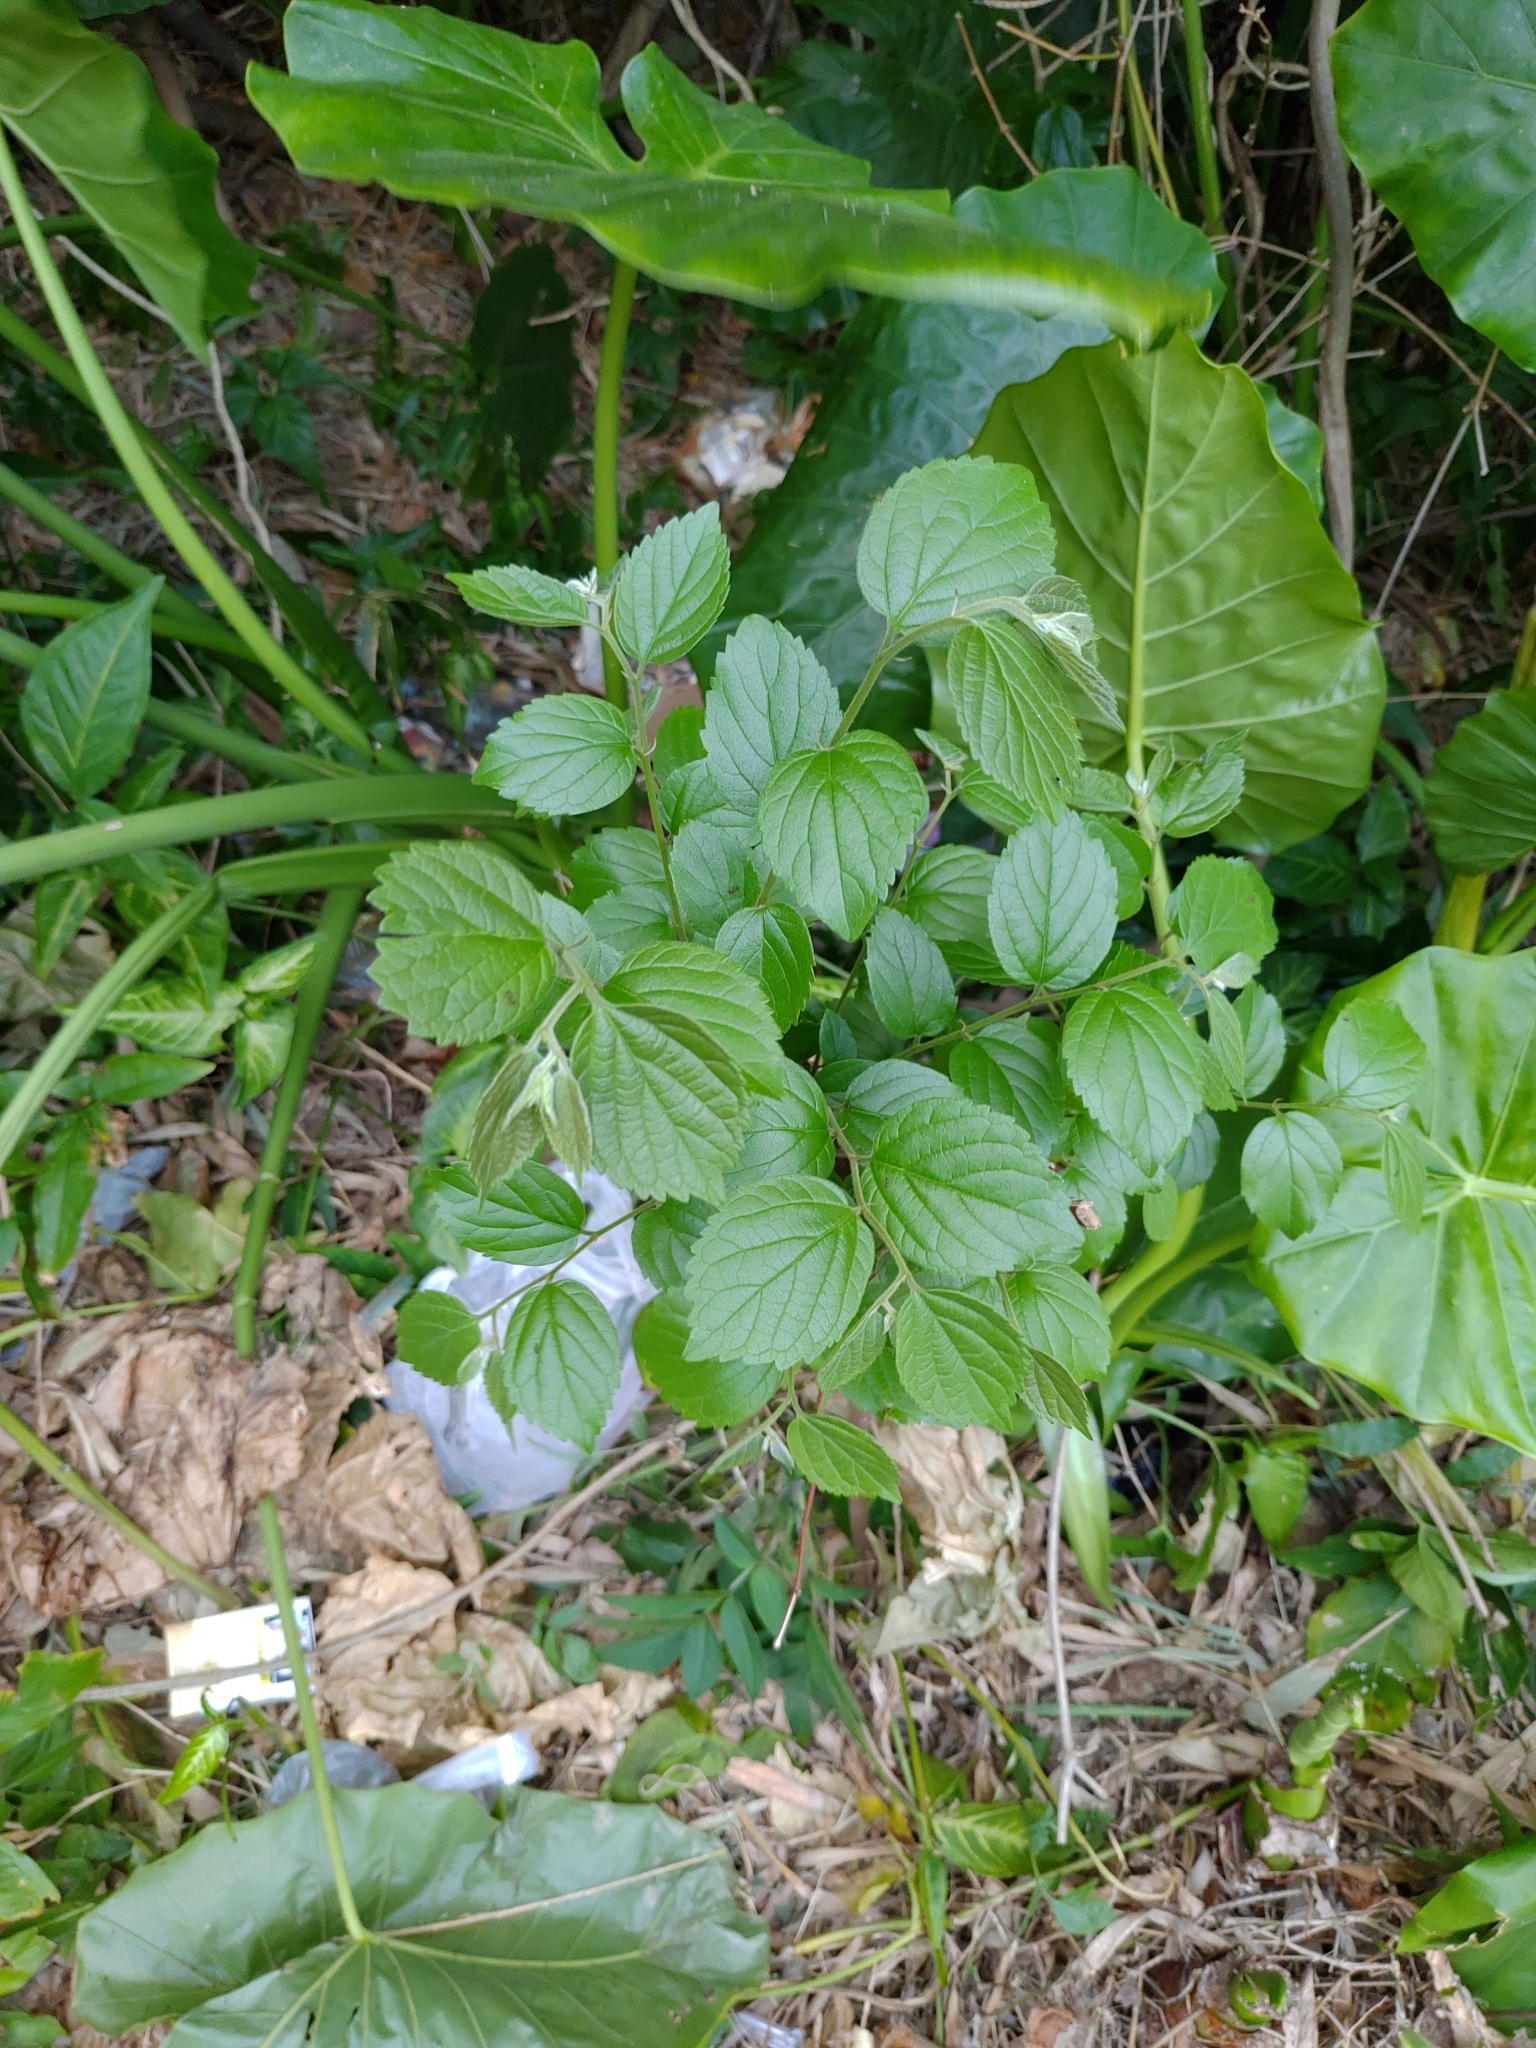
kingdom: Plantae
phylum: Tracheophyta
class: Magnoliopsida
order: Rosales
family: Cannabaceae
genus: Celtis
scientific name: Celtis sinensis
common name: Chinese hackberry
